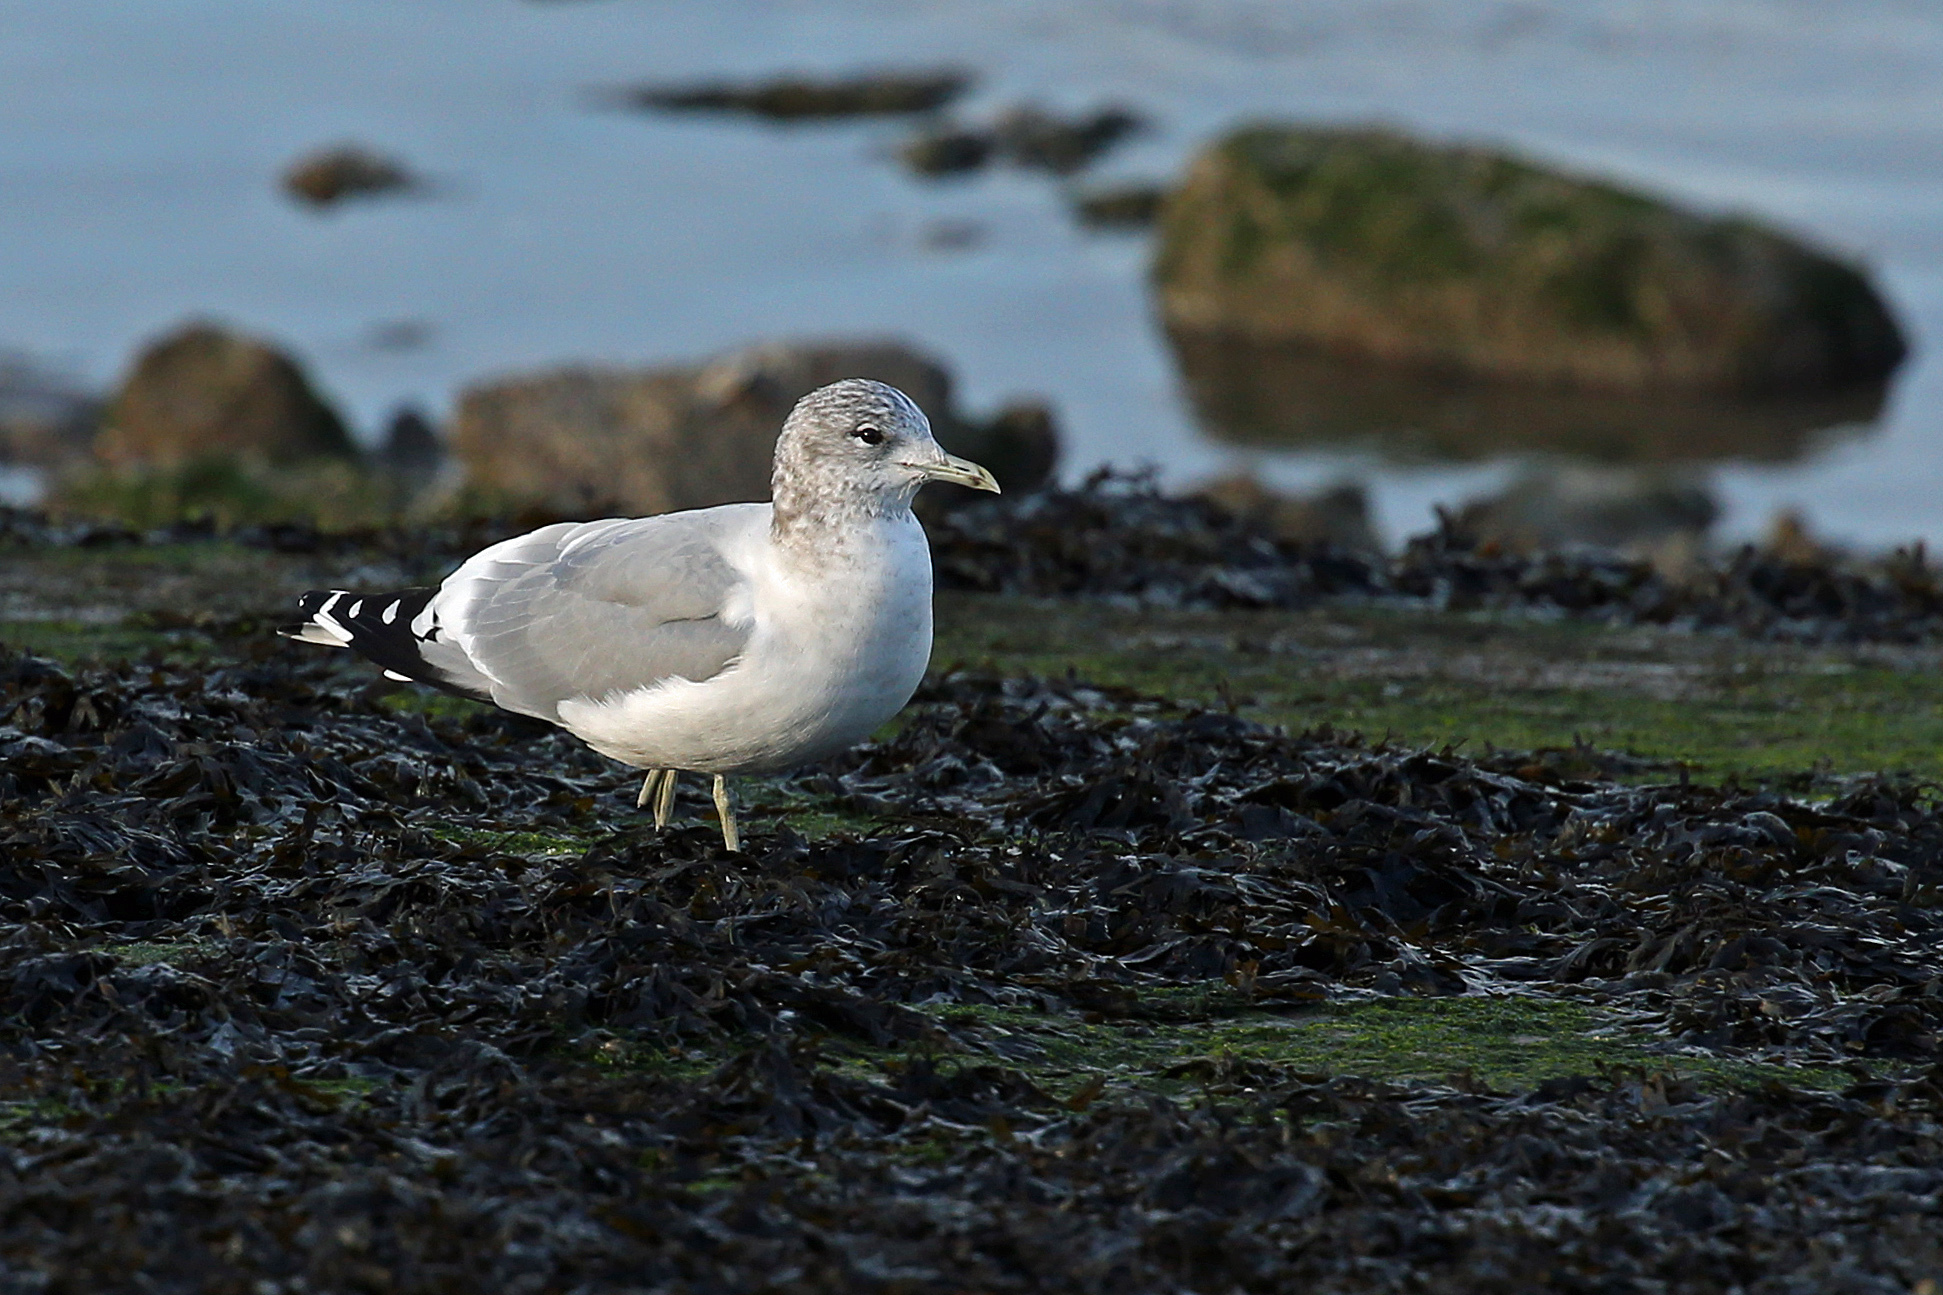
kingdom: Animalia
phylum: Chordata
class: Aves
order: Charadriiformes
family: Laridae
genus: Larus
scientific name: Larus canus
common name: Mew gull
